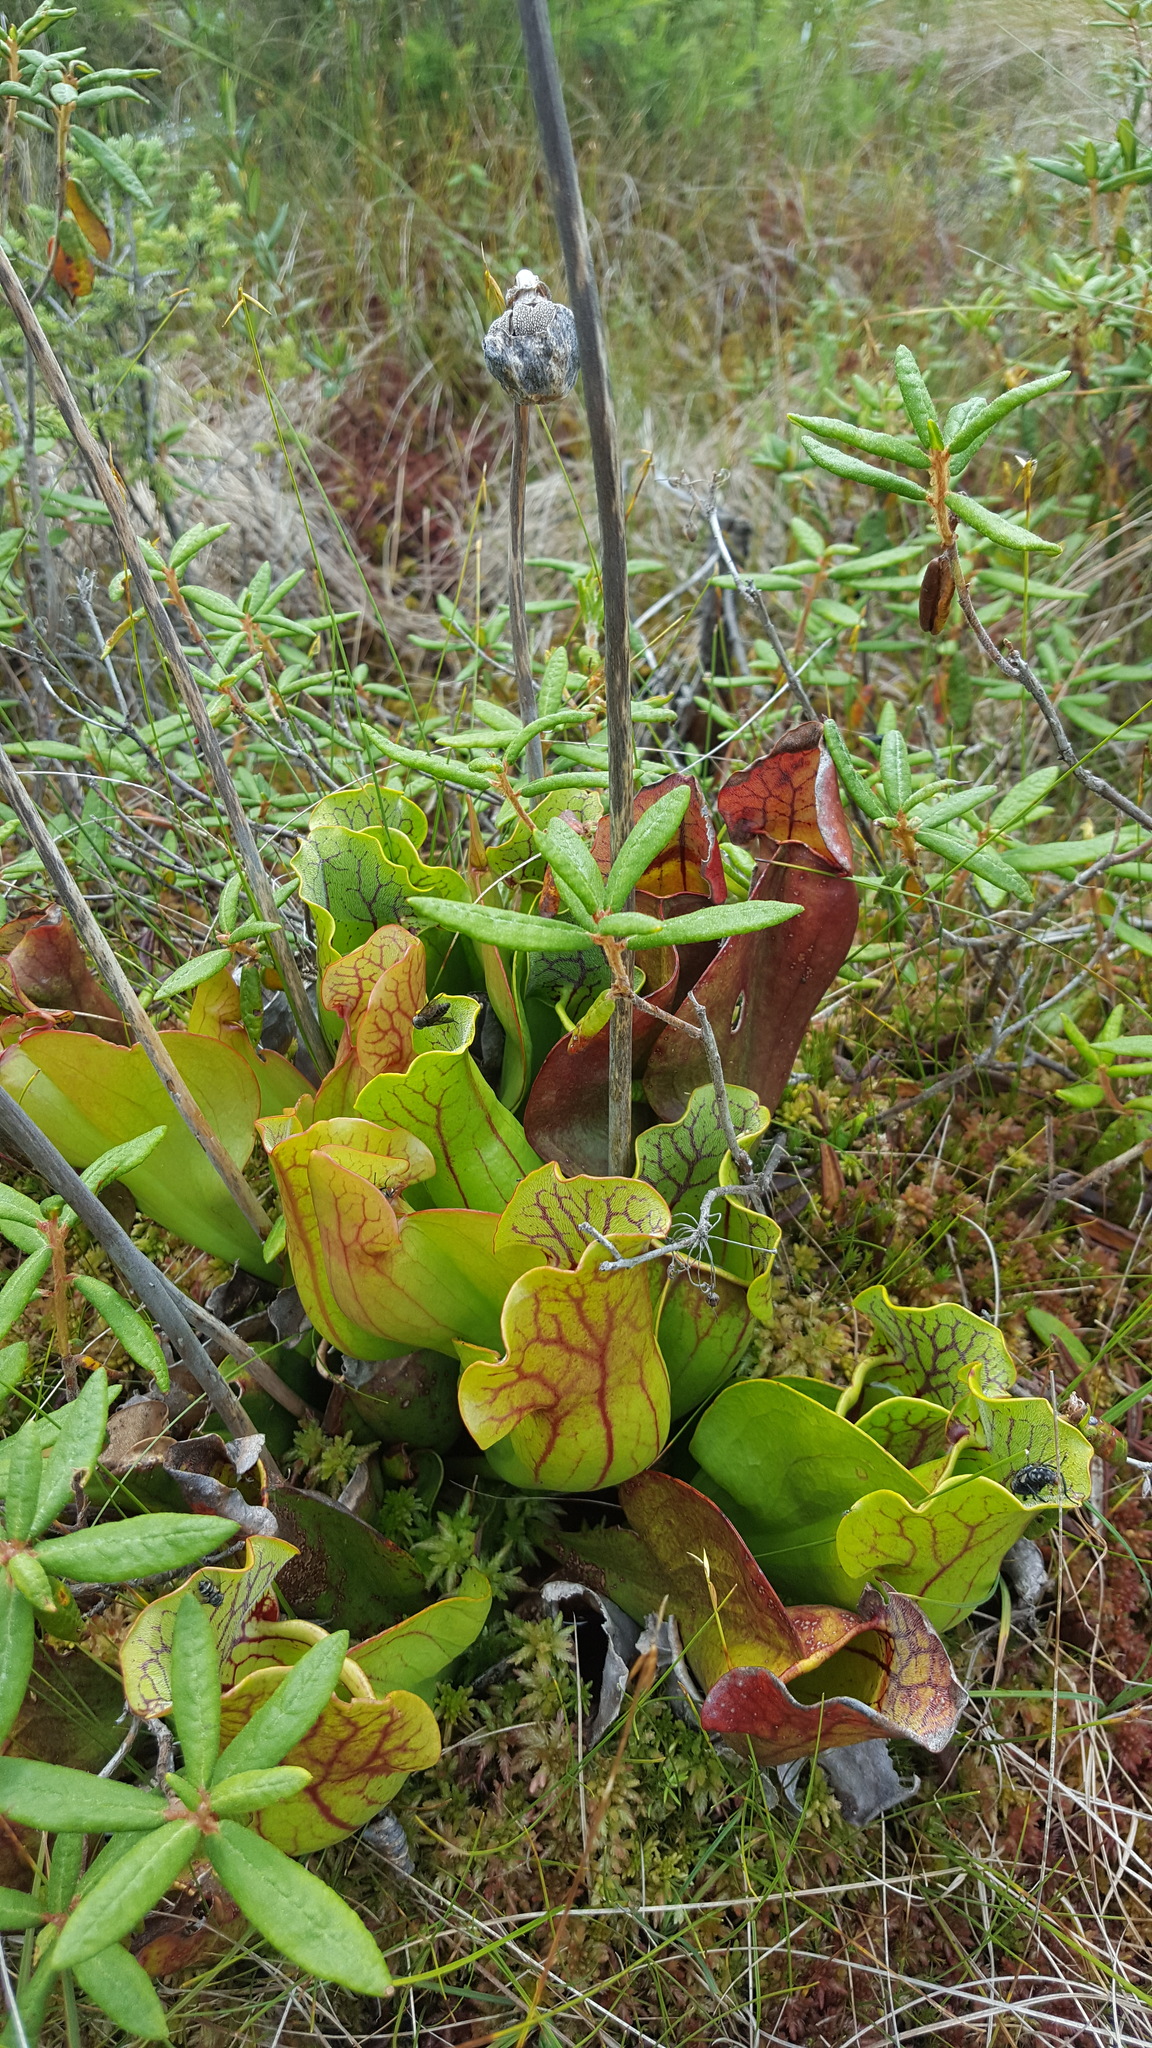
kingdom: Plantae
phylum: Tracheophyta
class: Magnoliopsida
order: Ericales
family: Sarraceniaceae
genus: Sarracenia
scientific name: Sarracenia purpurea
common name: Pitcherplant
